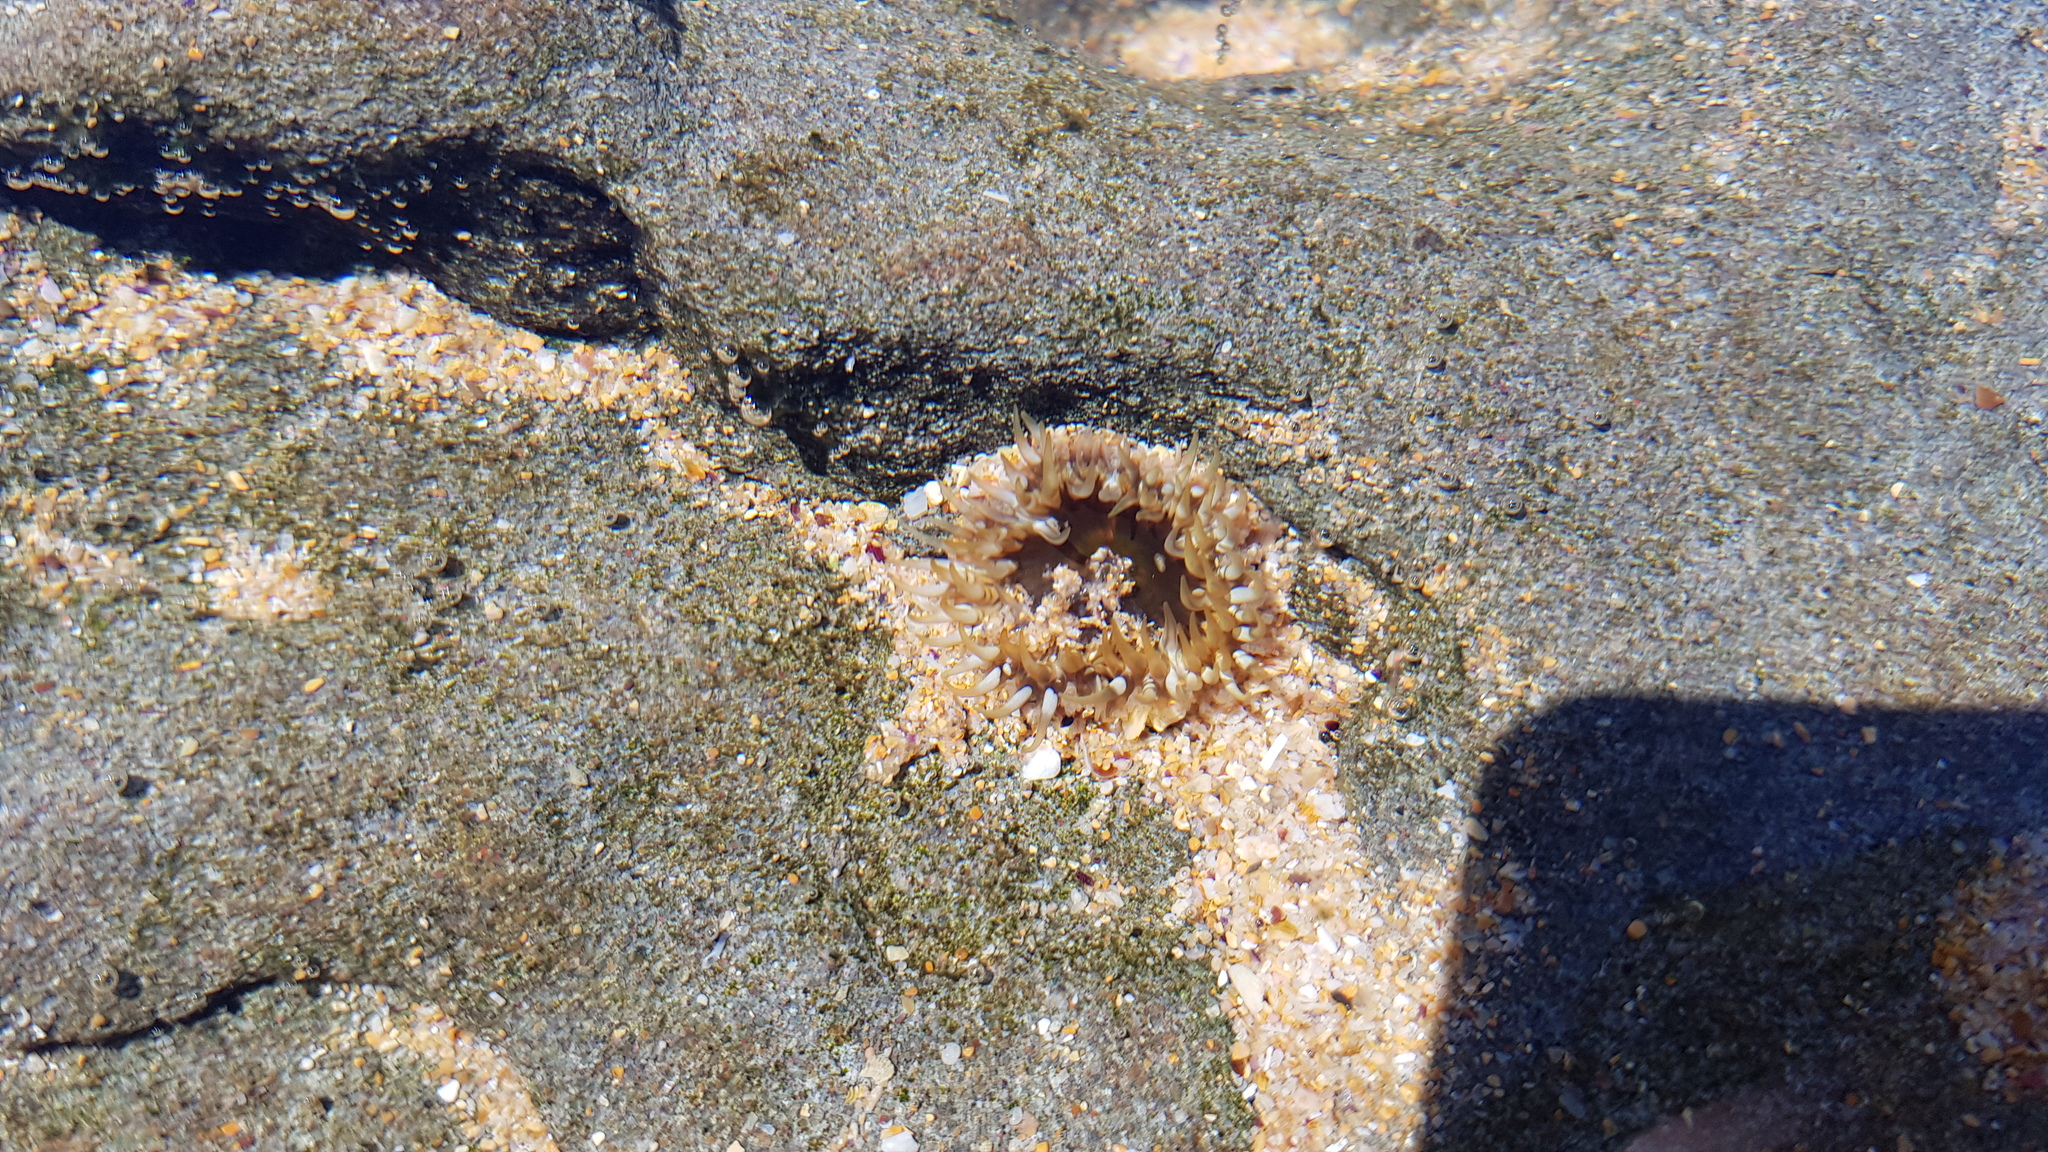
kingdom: Animalia
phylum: Cnidaria
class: Anthozoa
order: Actiniaria
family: Actiniidae
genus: Oulactis
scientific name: Oulactis muscosa
